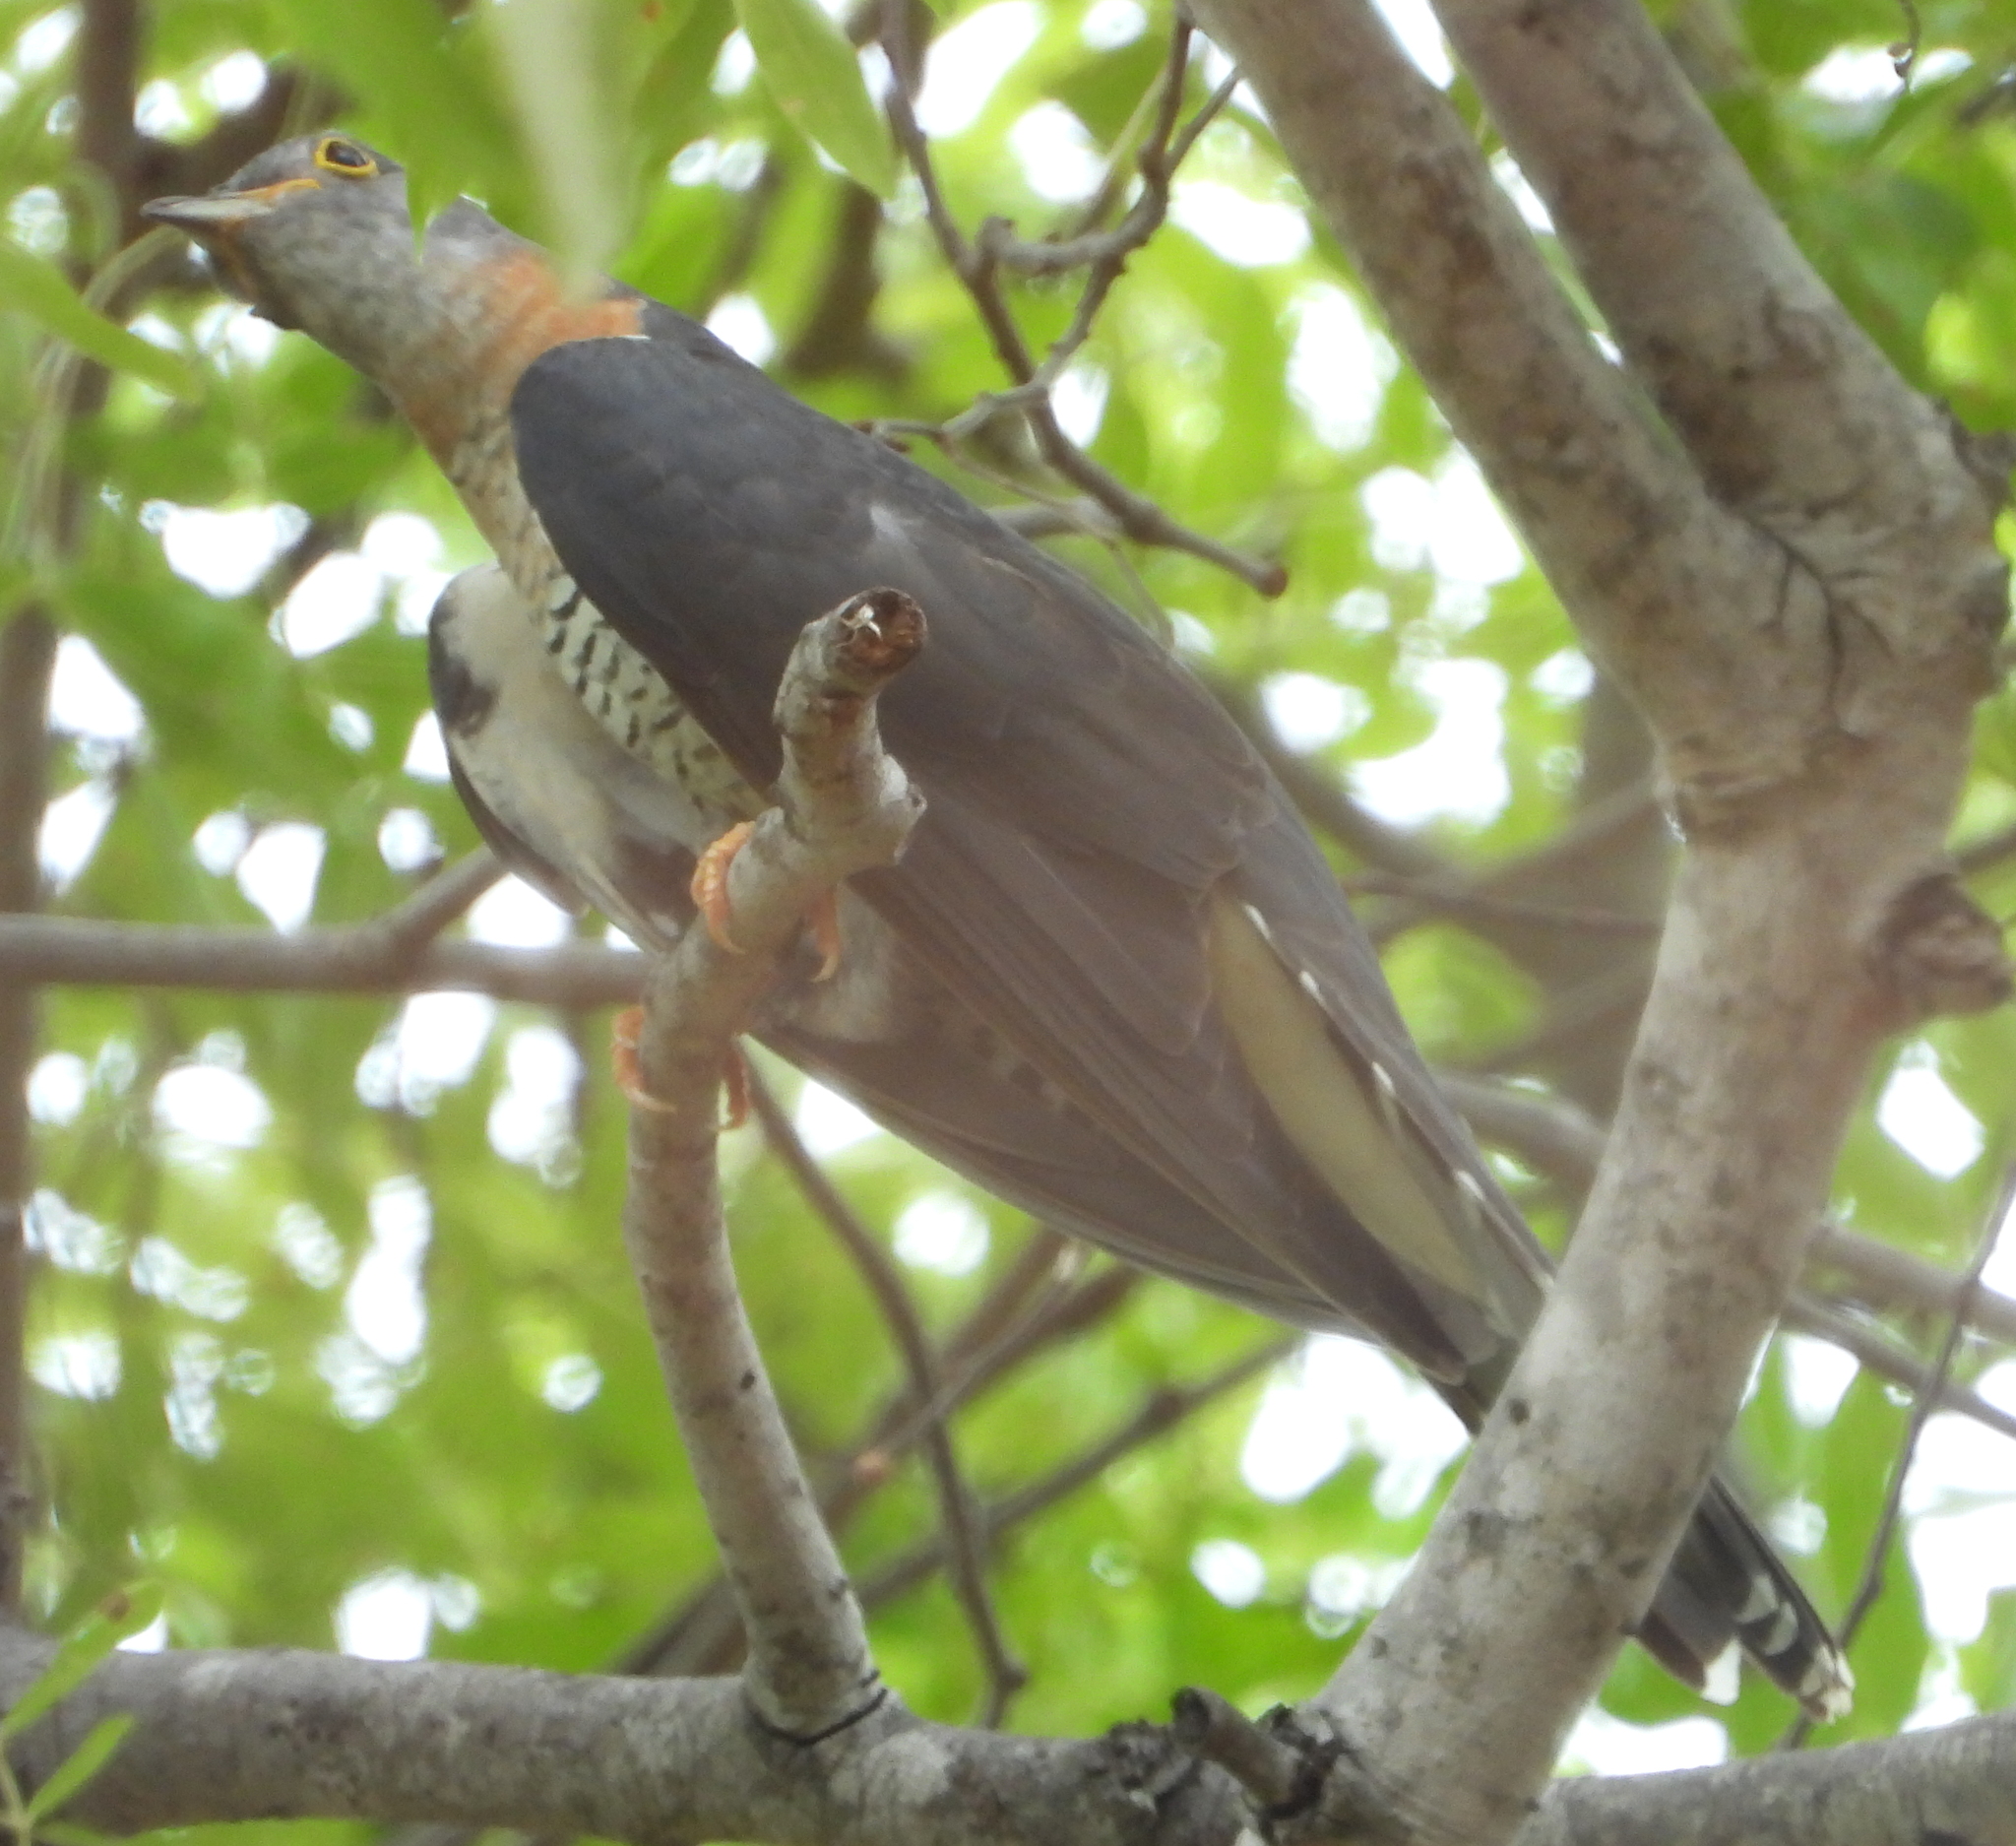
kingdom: Animalia
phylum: Chordata
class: Aves
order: Cuculiformes
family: Cuculidae
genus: Cuculus
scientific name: Cuculus solitarius
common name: Red-chested cuckoo
